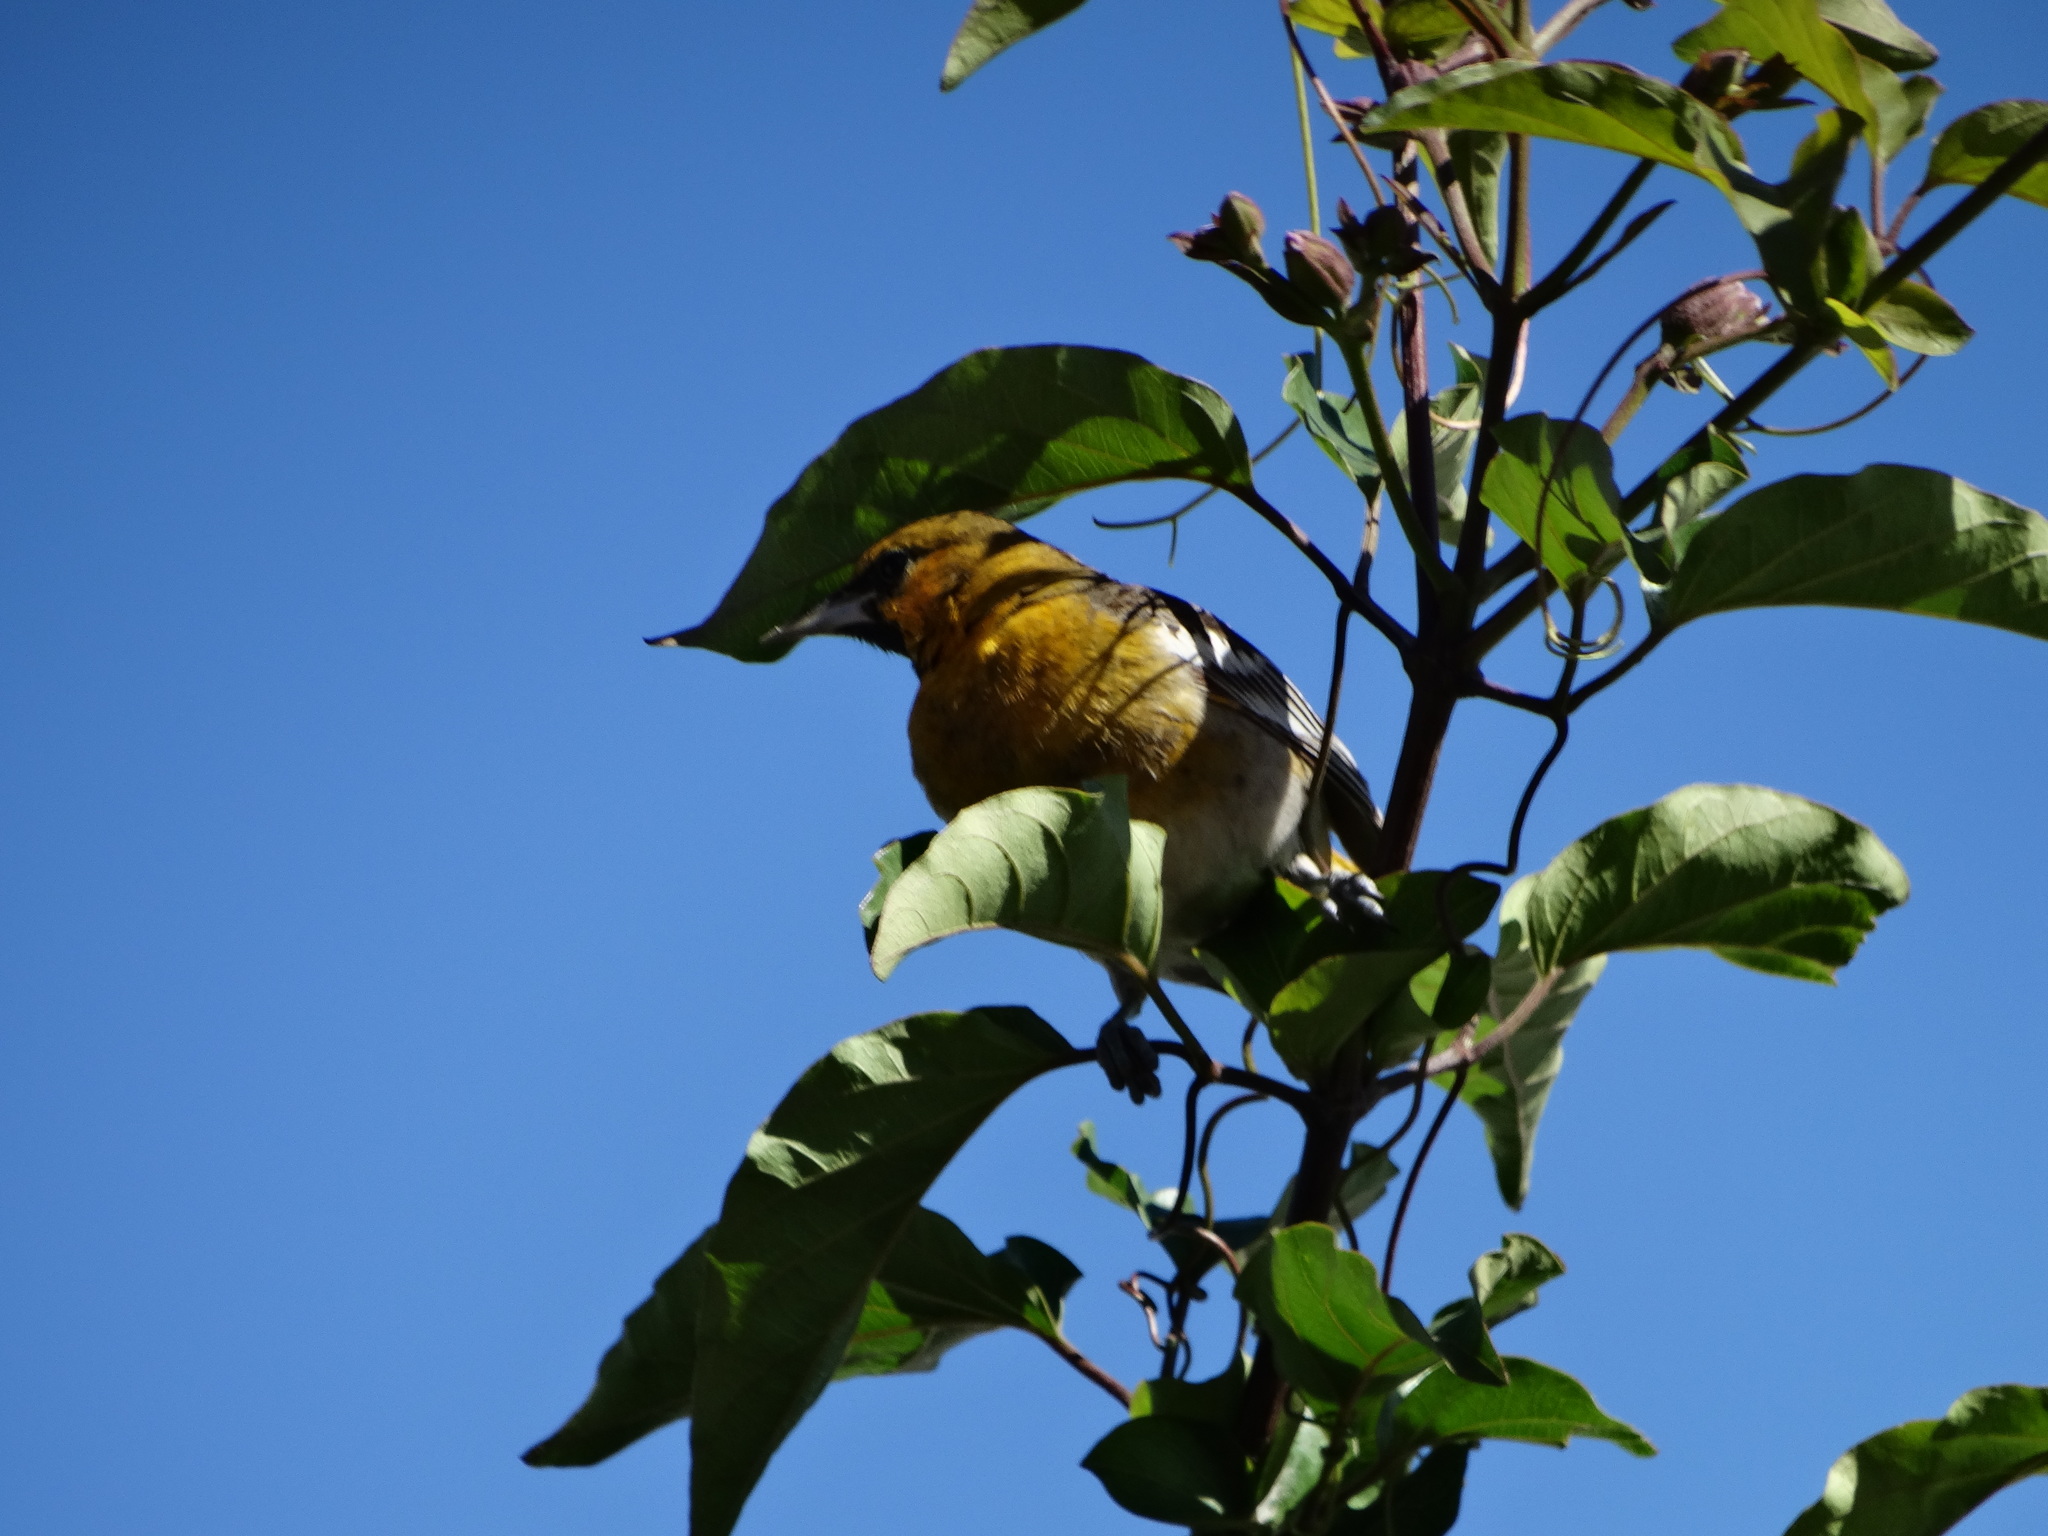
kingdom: Animalia
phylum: Chordata
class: Aves
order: Passeriformes
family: Icteridae
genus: Icterus
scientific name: Icterus bullockii
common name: Bullock's oriole
